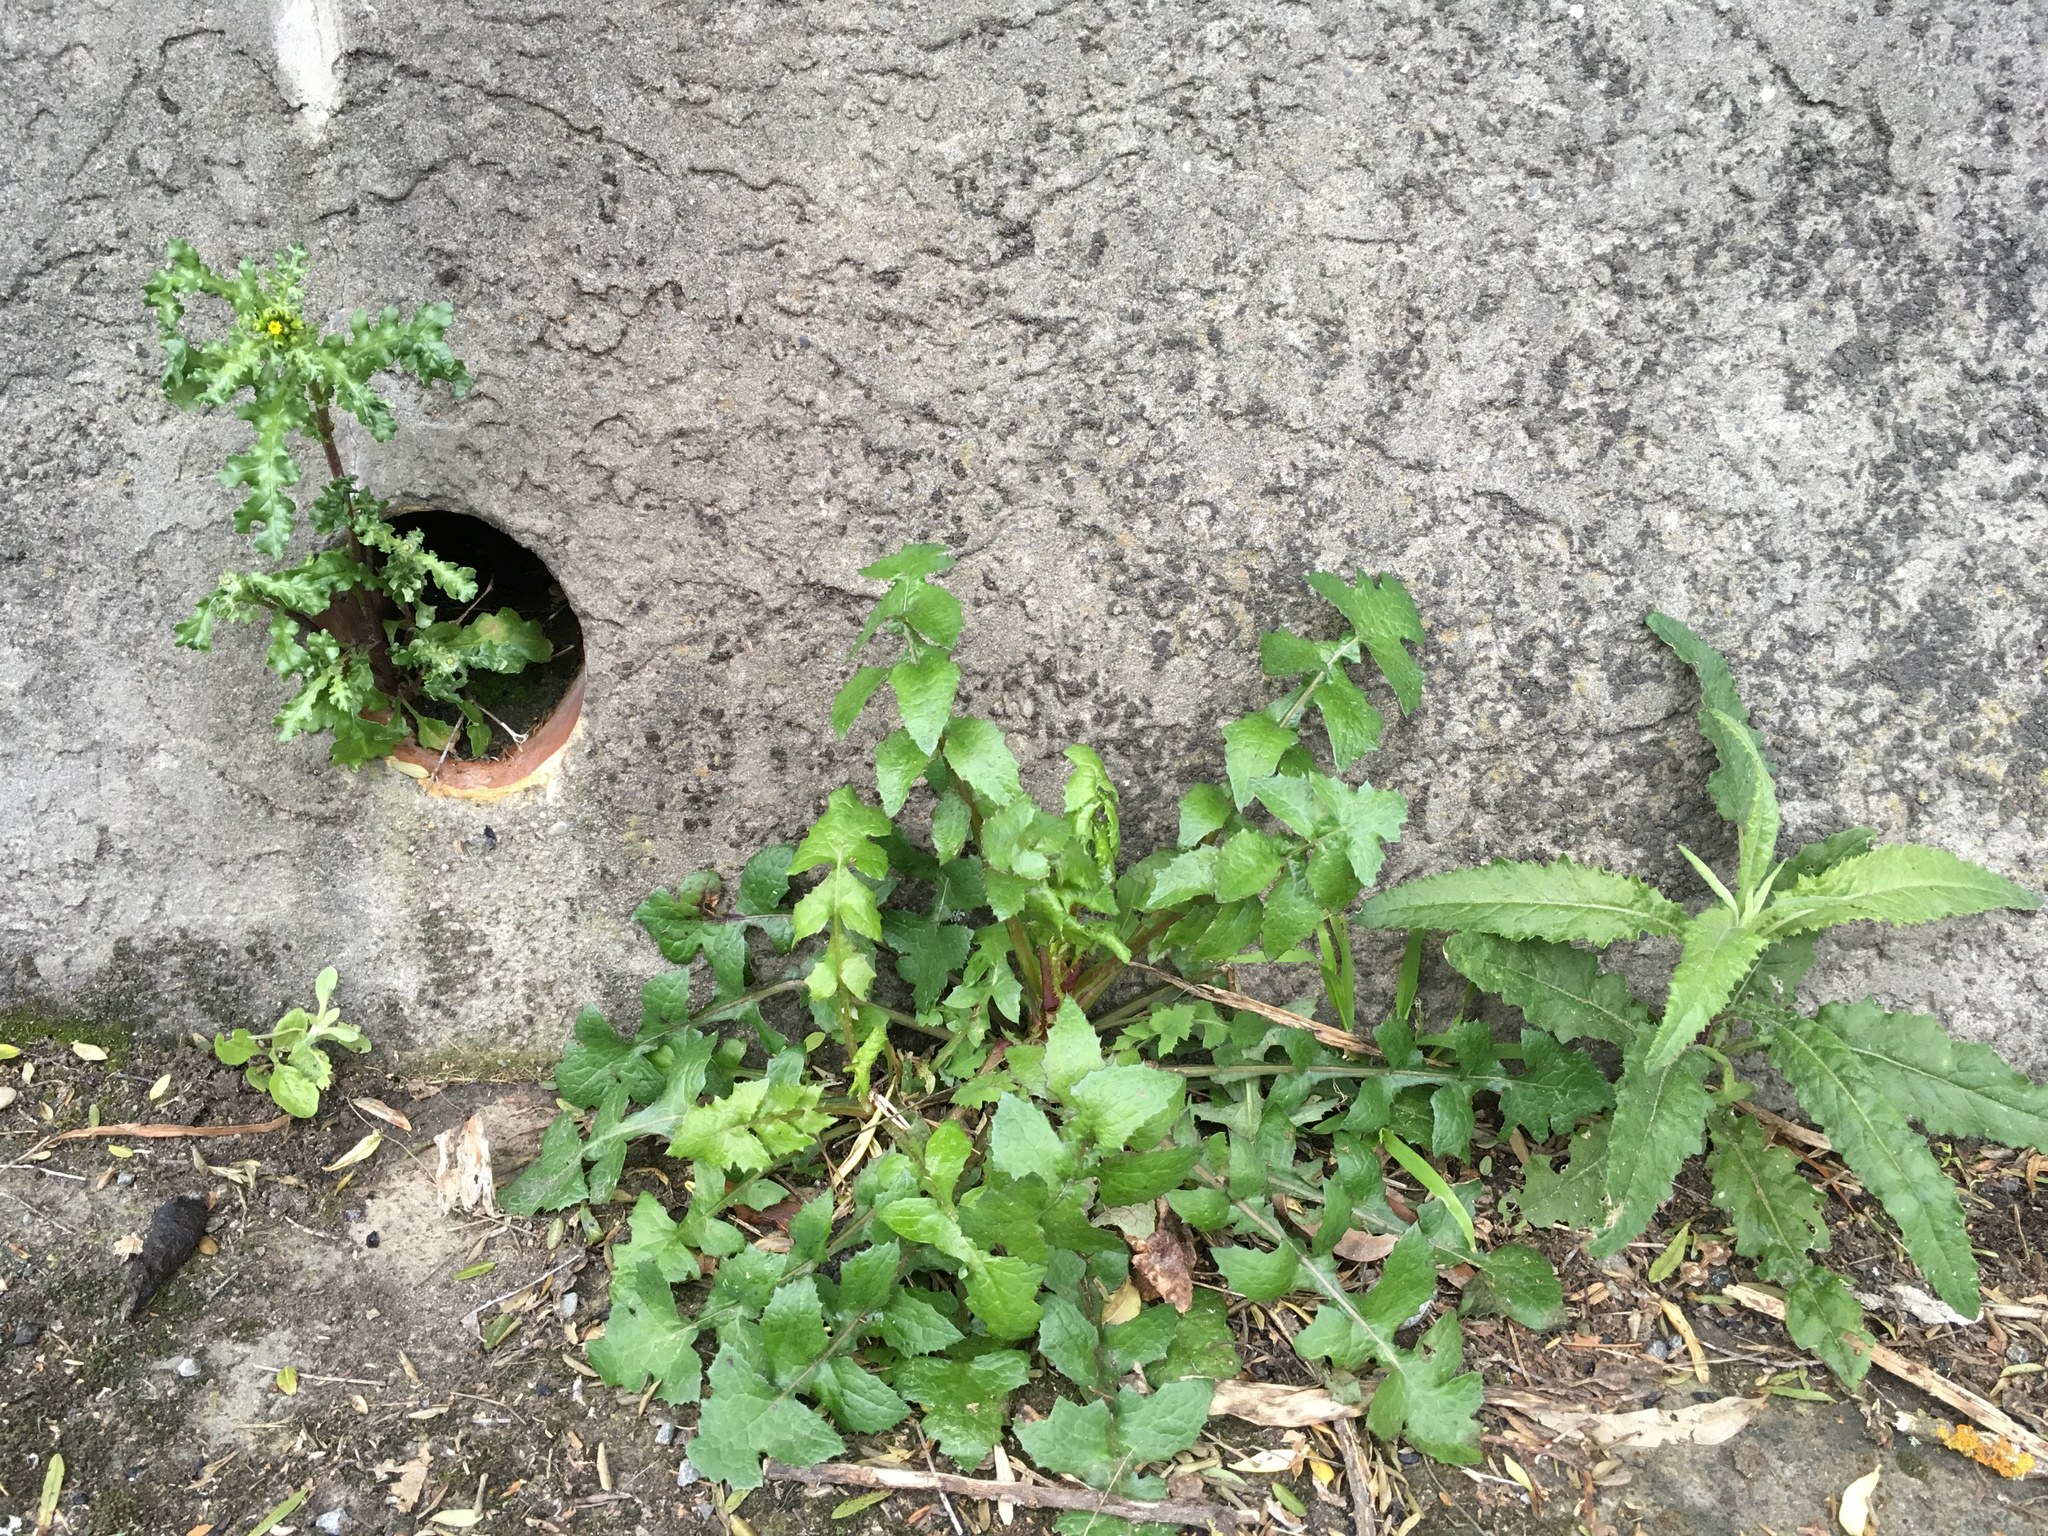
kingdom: Plantae
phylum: Tracheophyta
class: Magnoliopsida
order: Asterales
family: Asteraceae
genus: Senecio
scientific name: Senecio minimus
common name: Toothed fireweed
